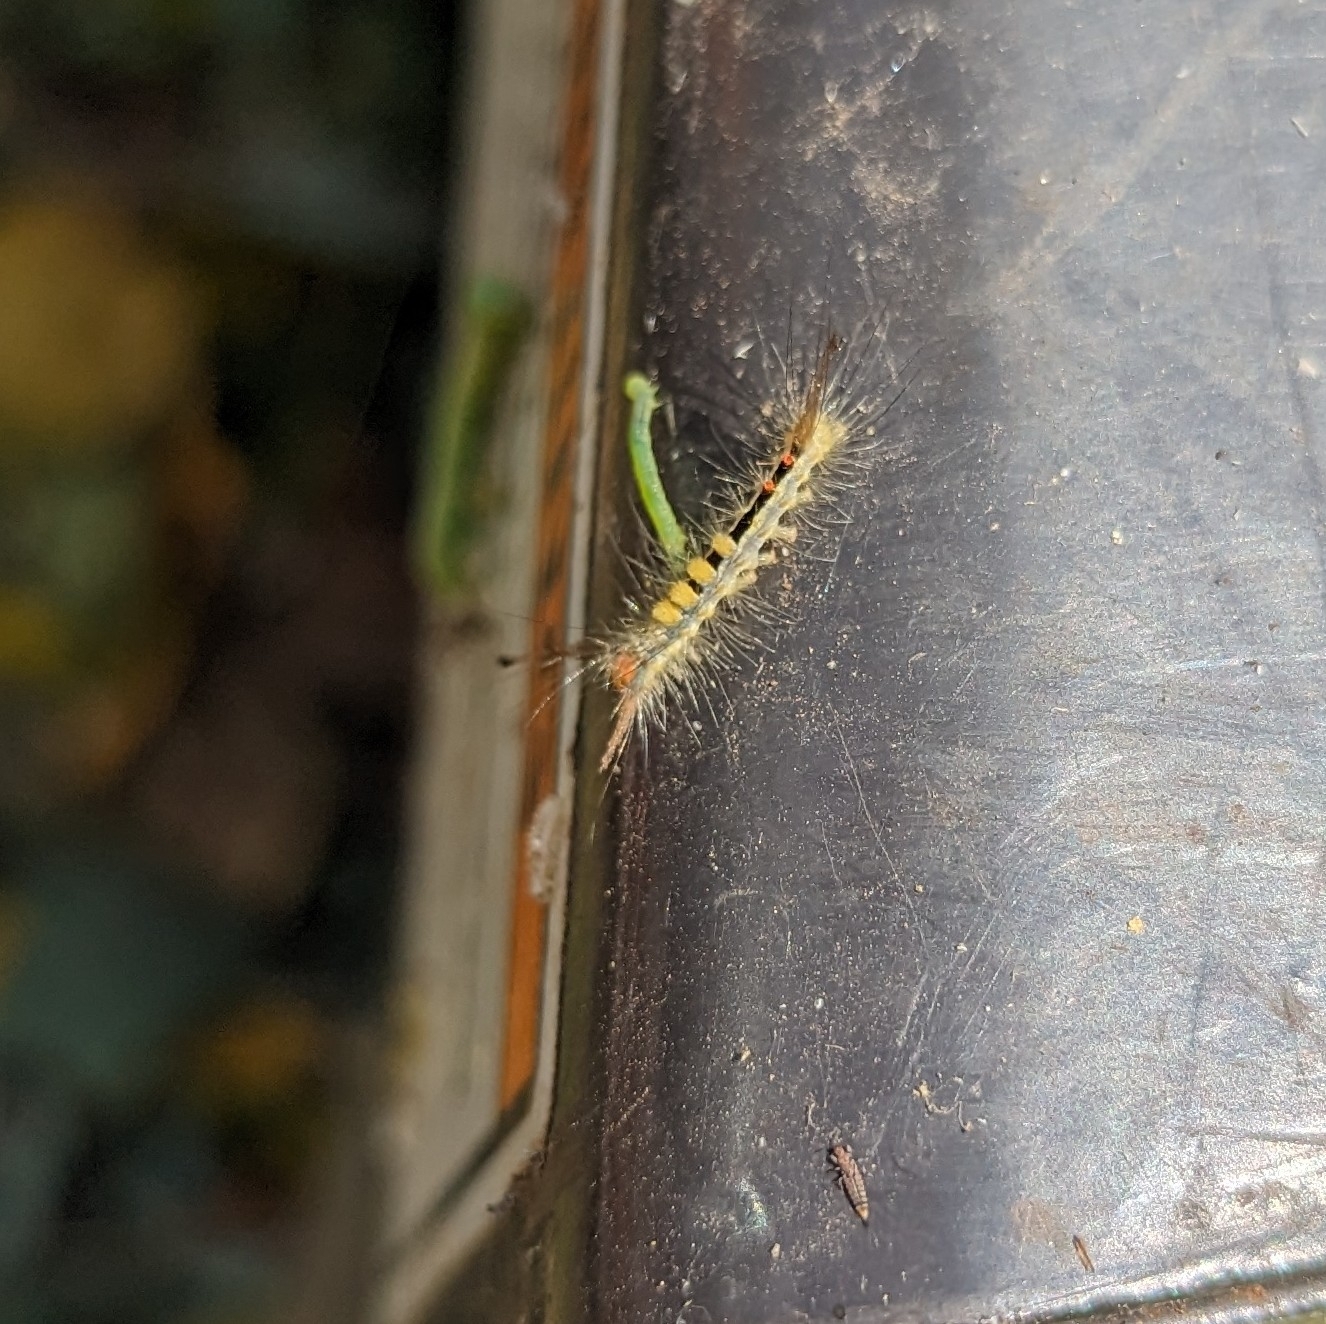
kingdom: Animalia
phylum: Arthropoda
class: Insecta
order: Lepidoptera
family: Erebidae
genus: Orgyia
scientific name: Orgyia leucostigma
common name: White-marked tussock moth
